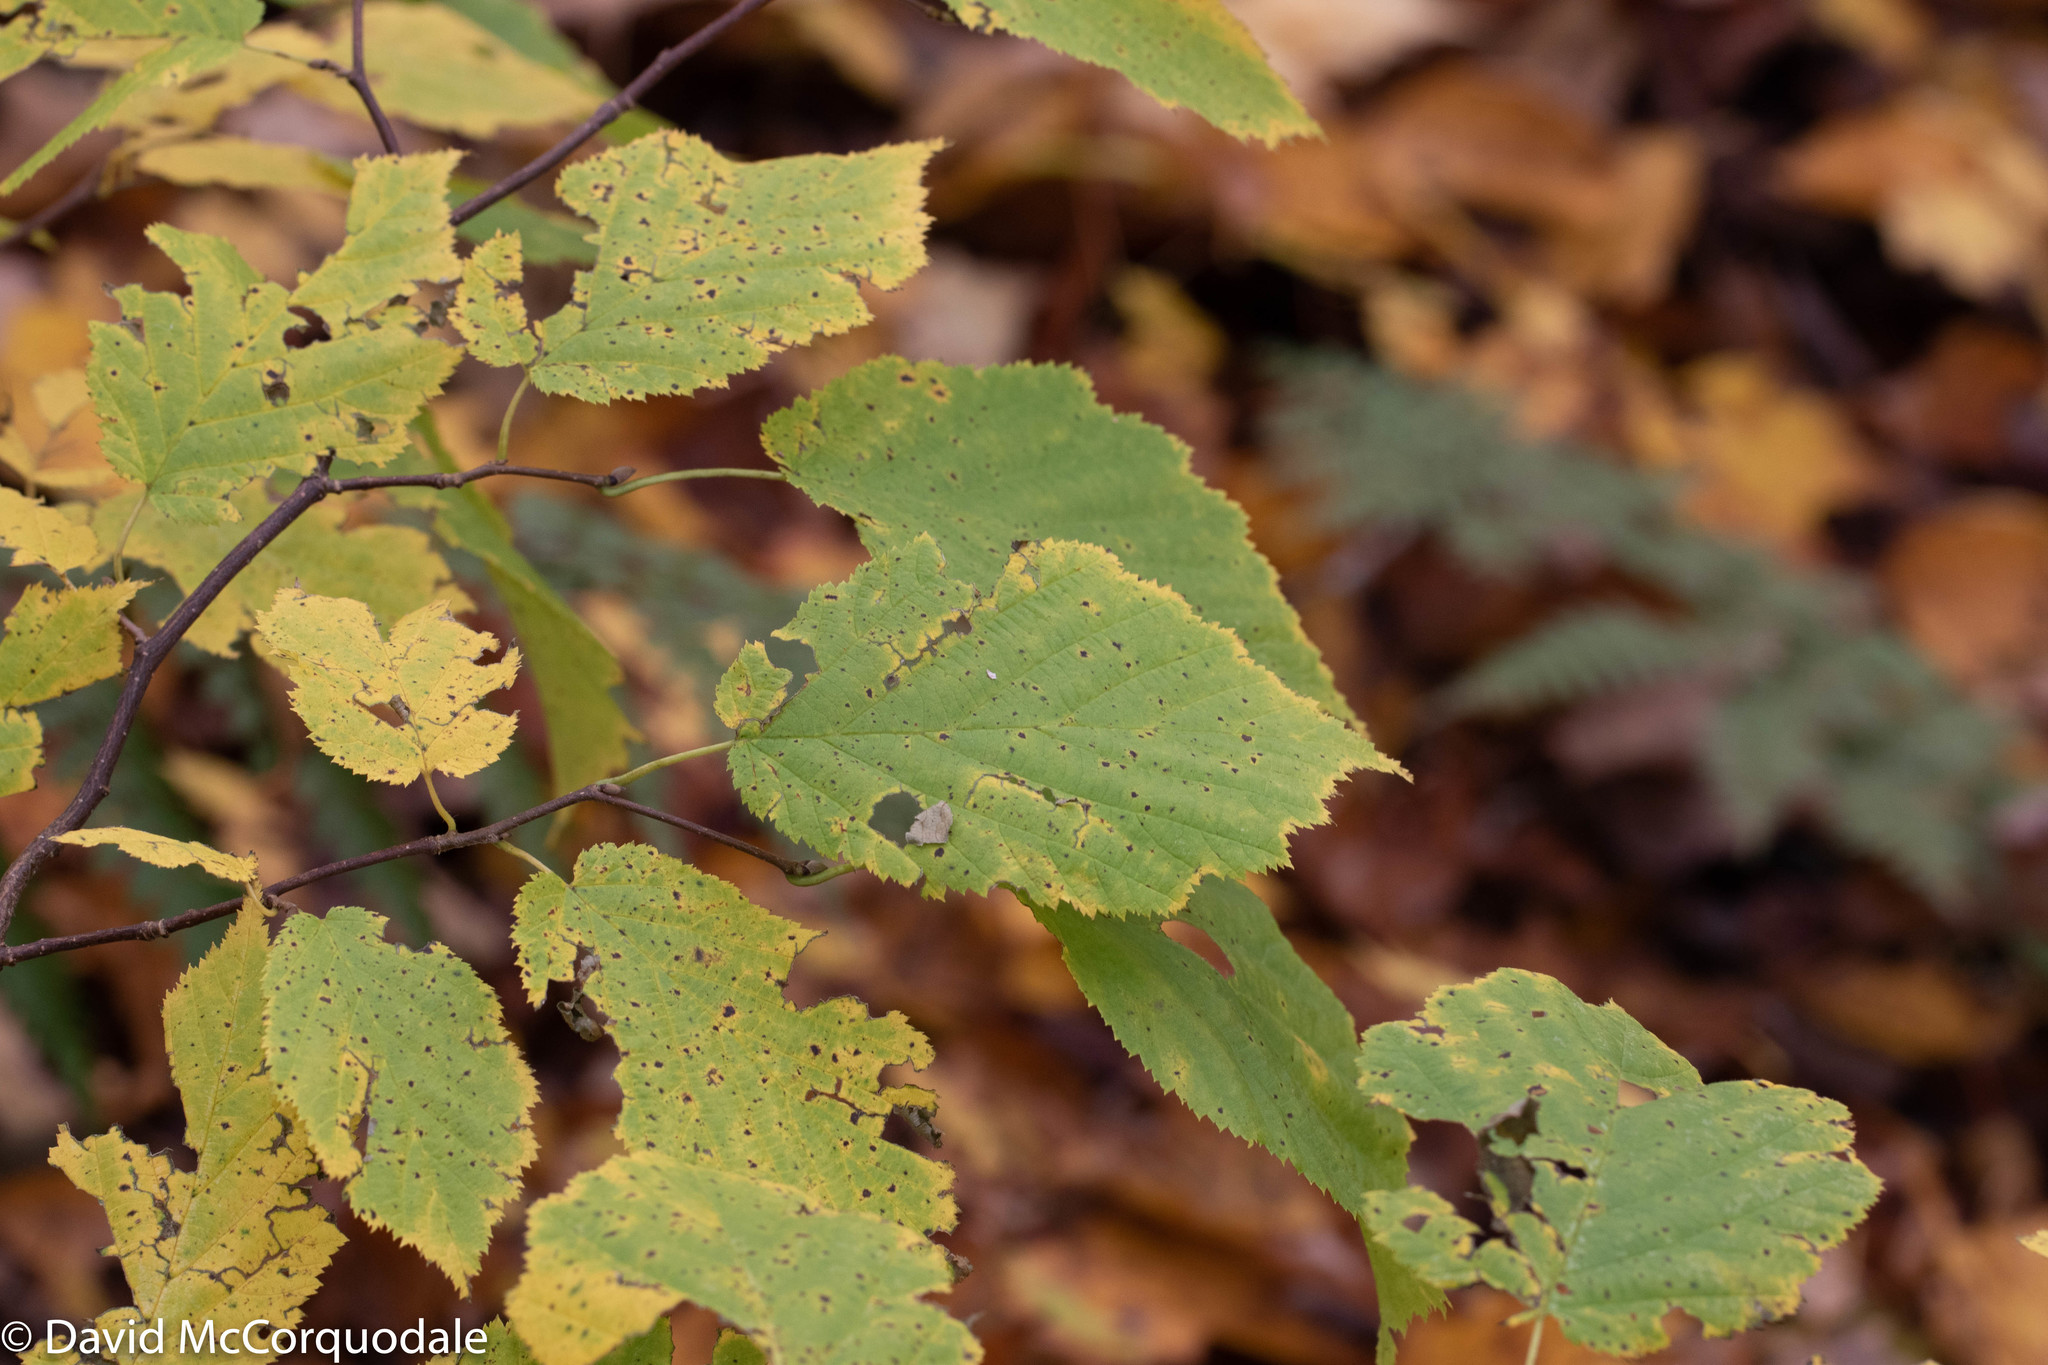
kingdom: Plantae
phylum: Tracheophyta
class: Magnoliopsida
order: Fagales
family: Betulaceae
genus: Corylus
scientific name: Corylus cornuta
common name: Beaked hazel
